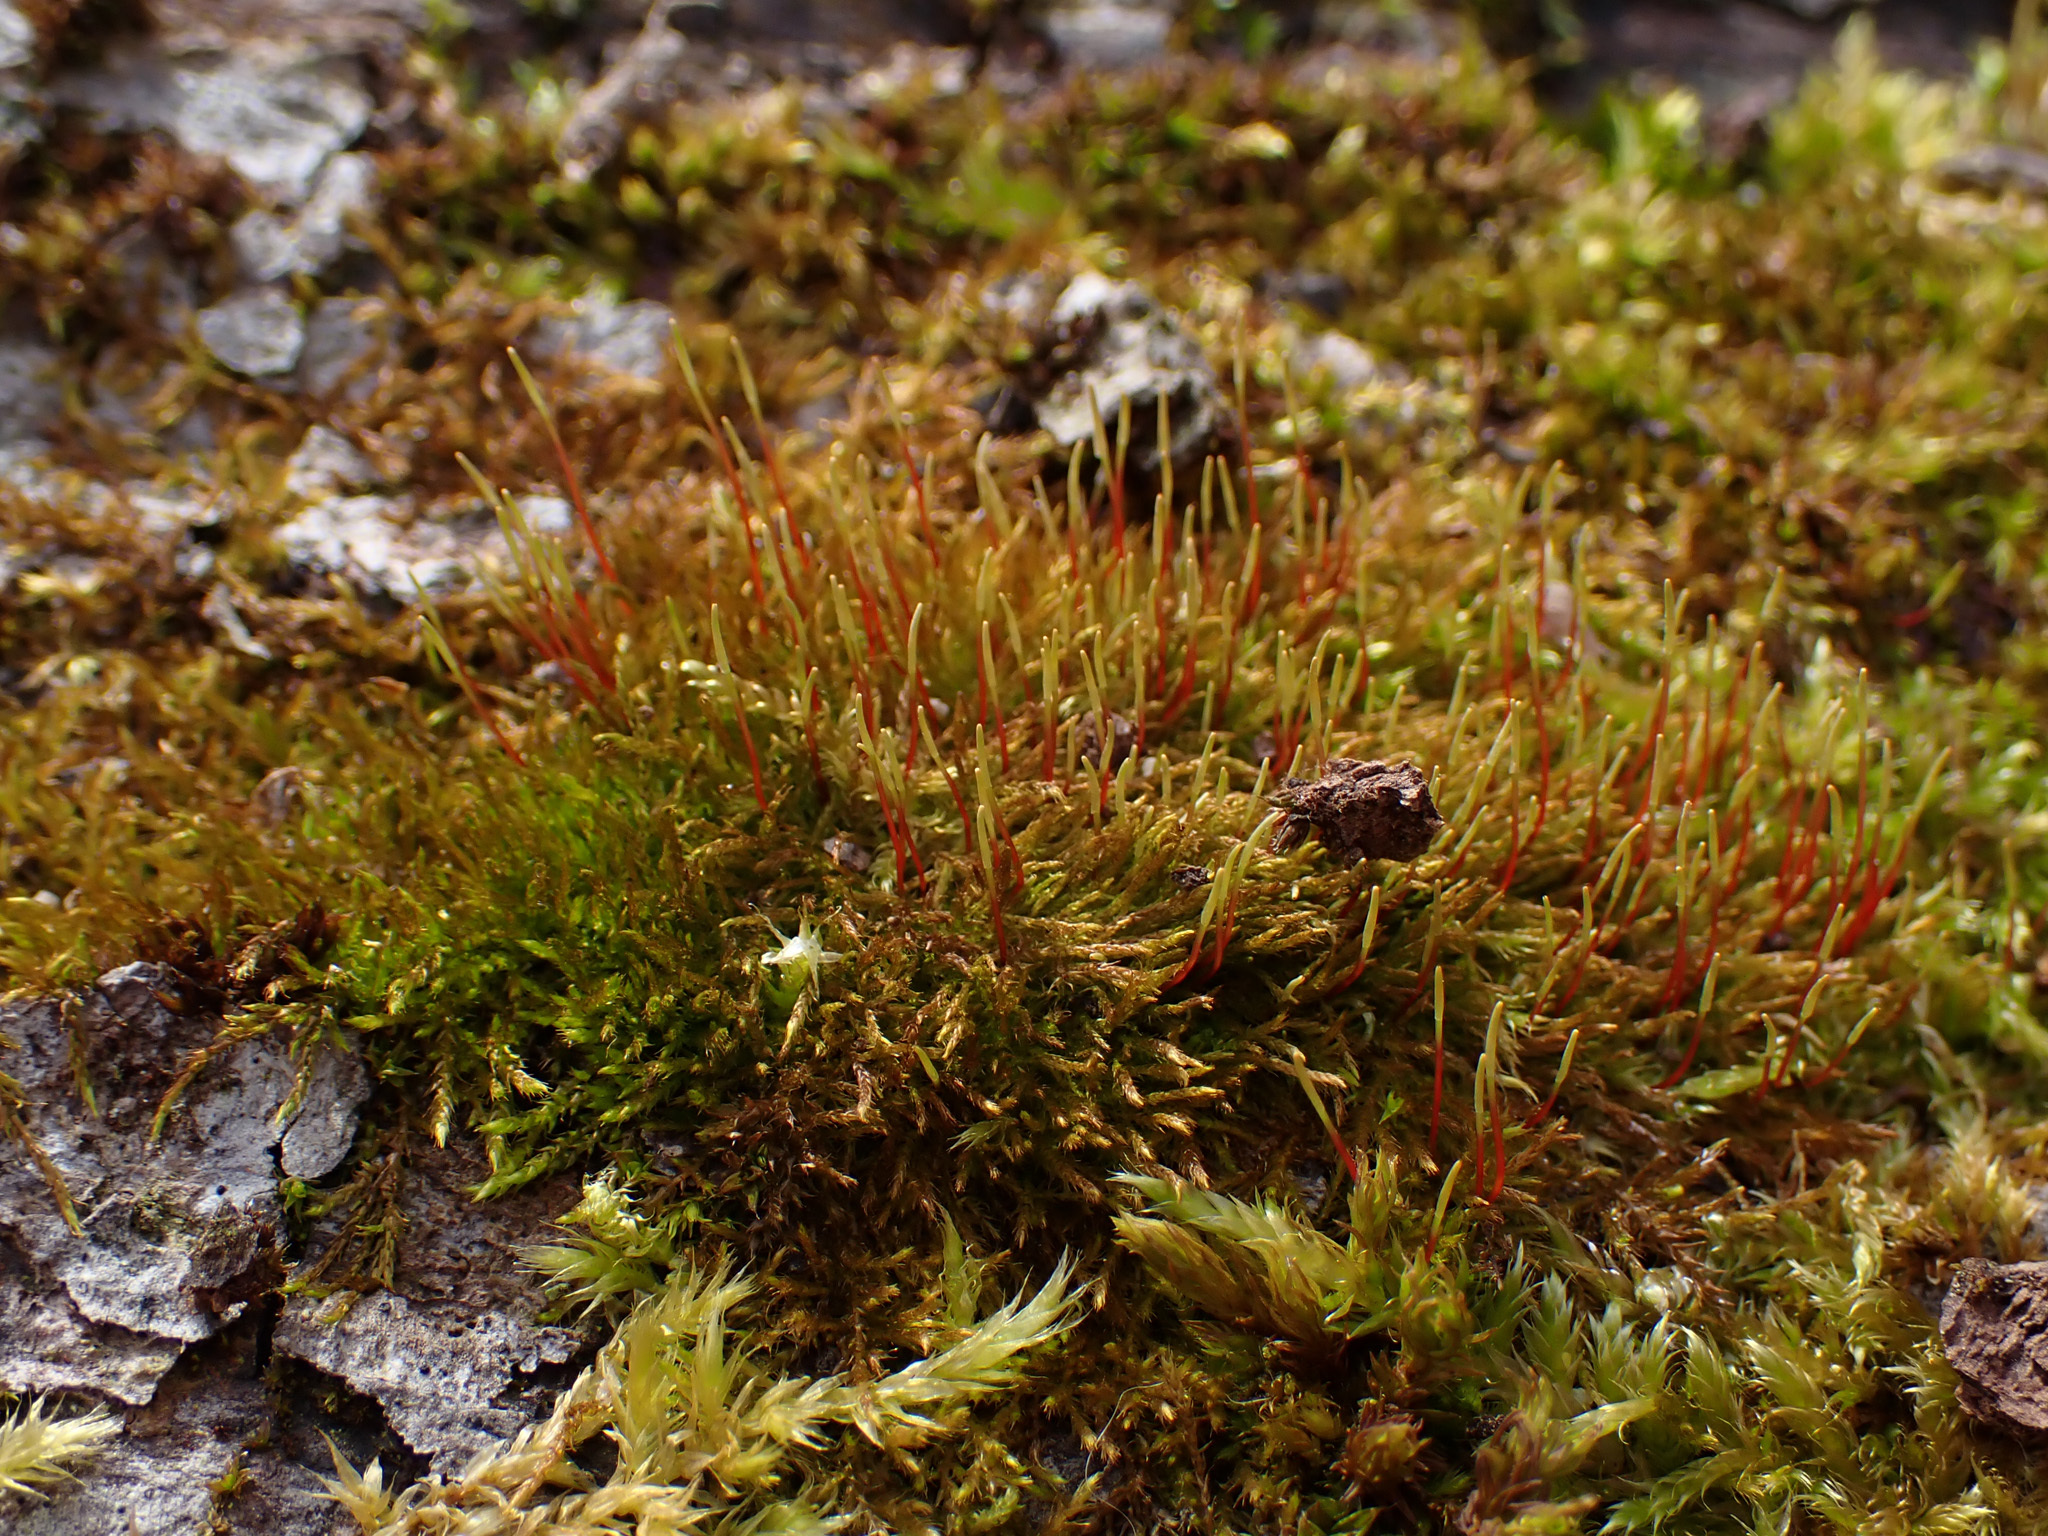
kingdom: Plantae
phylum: Bryophyta
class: Bryopsida
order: Hypnales
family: Amblystegiaceae
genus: Amblystegium
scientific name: Amblystegium serpens
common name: Jurkatzka's feather moss
